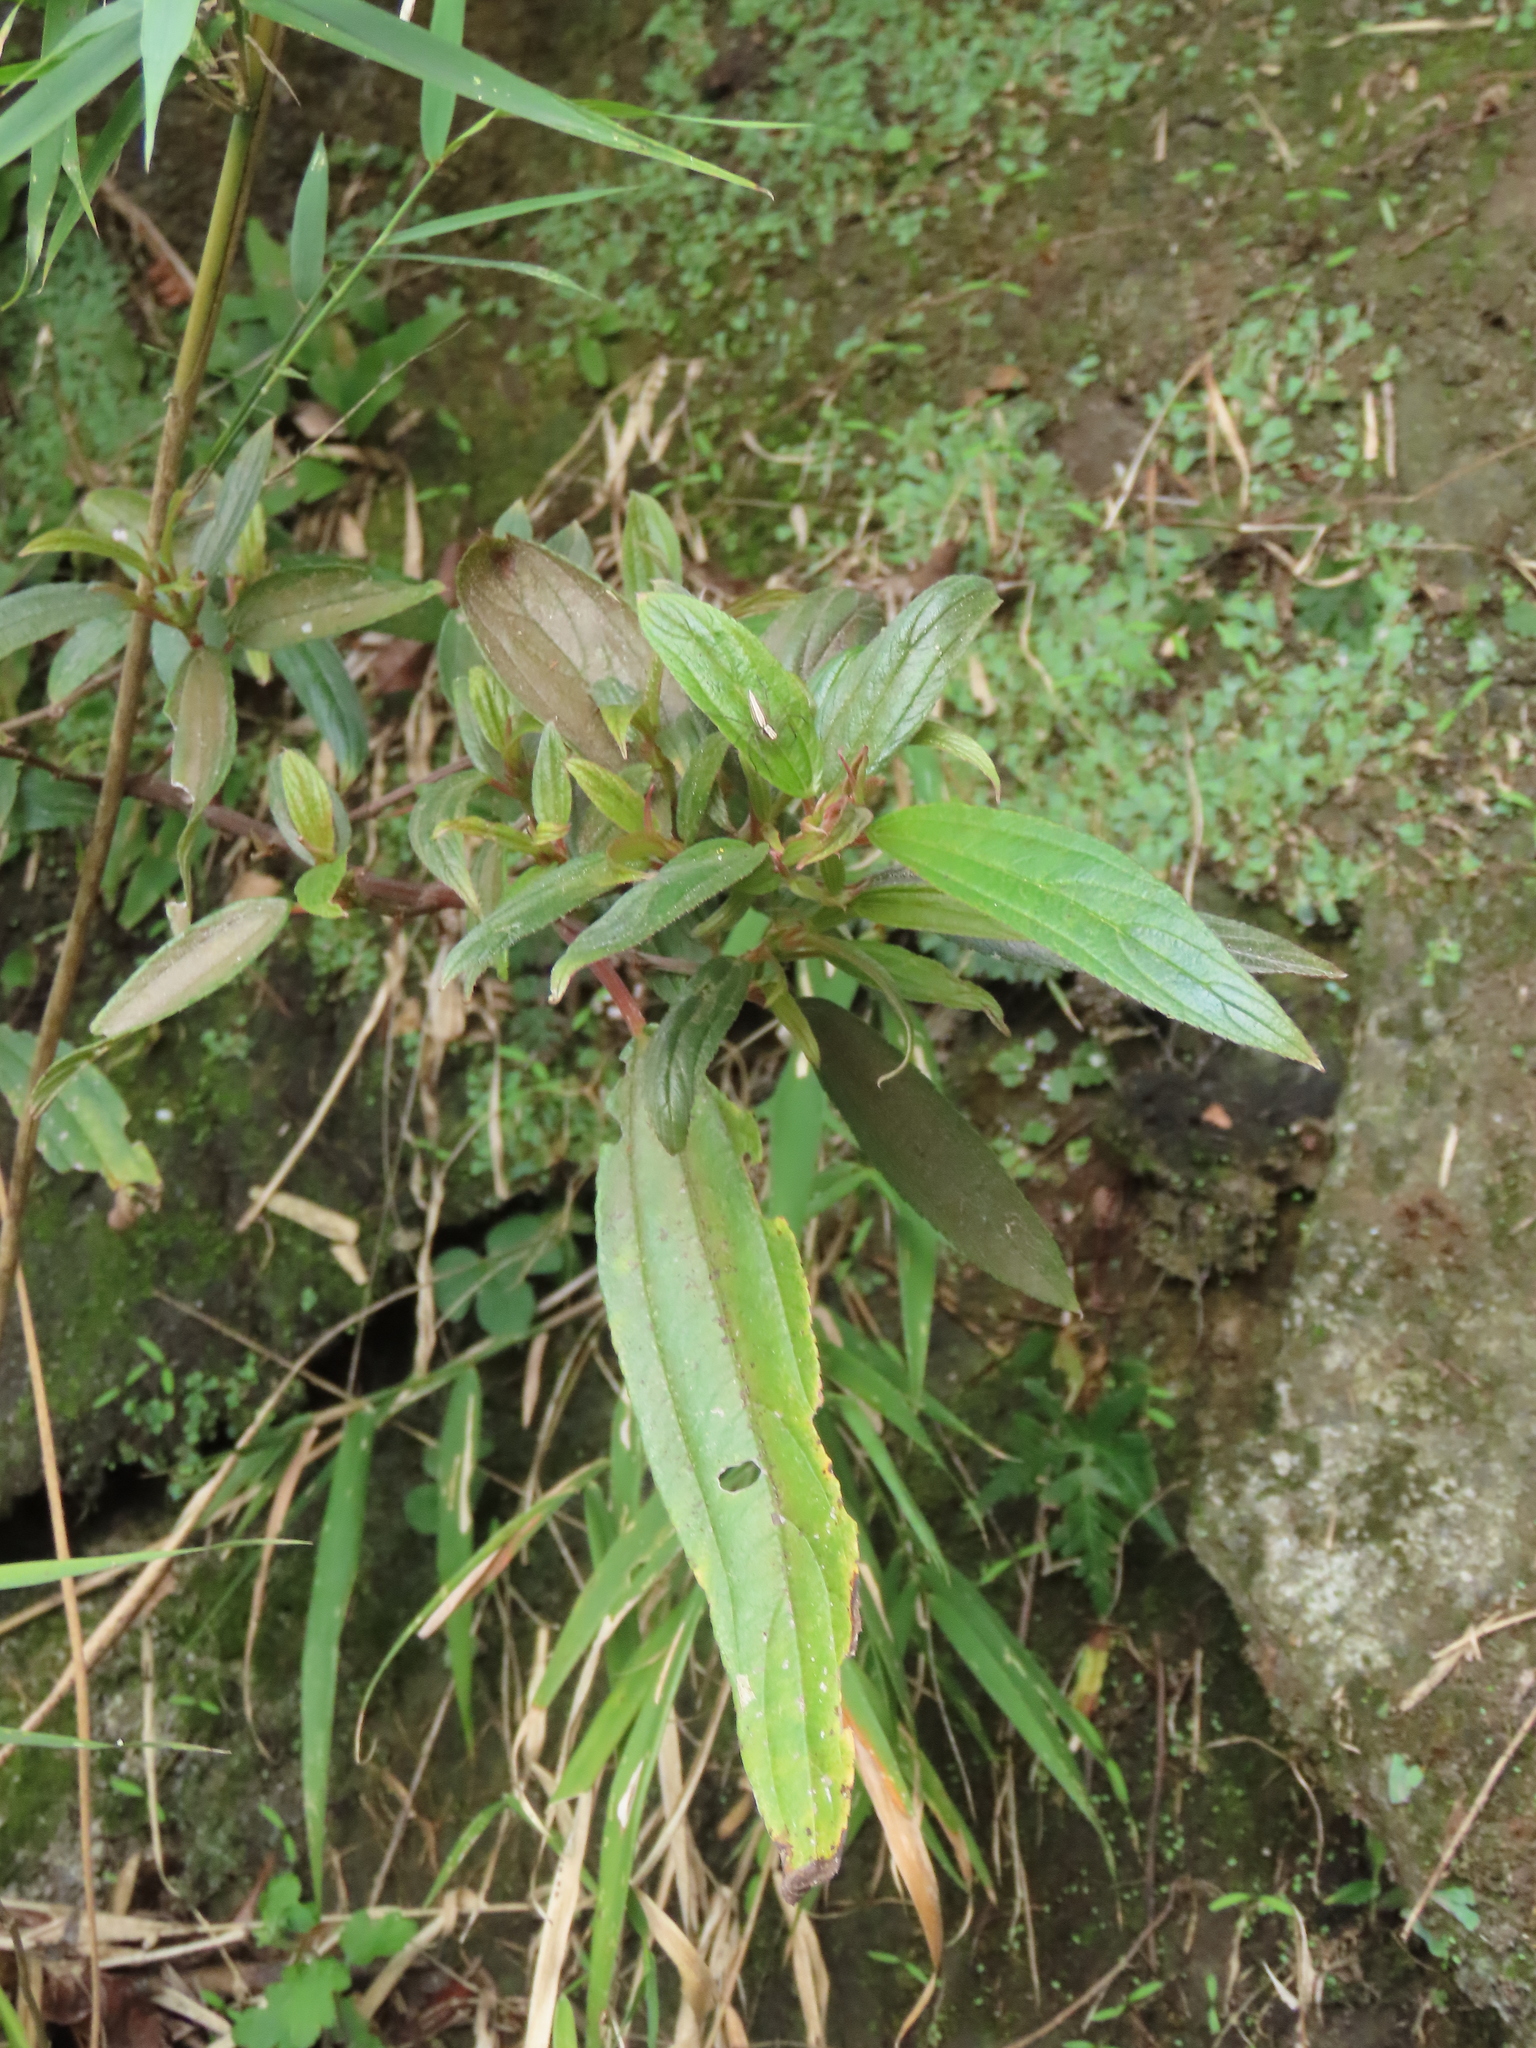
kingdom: Plantae
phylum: Tracheophyta
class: Magnoliopsida
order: Rosales
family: Urticaceae
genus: Boehmeria
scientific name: Boehmeria densiflora
